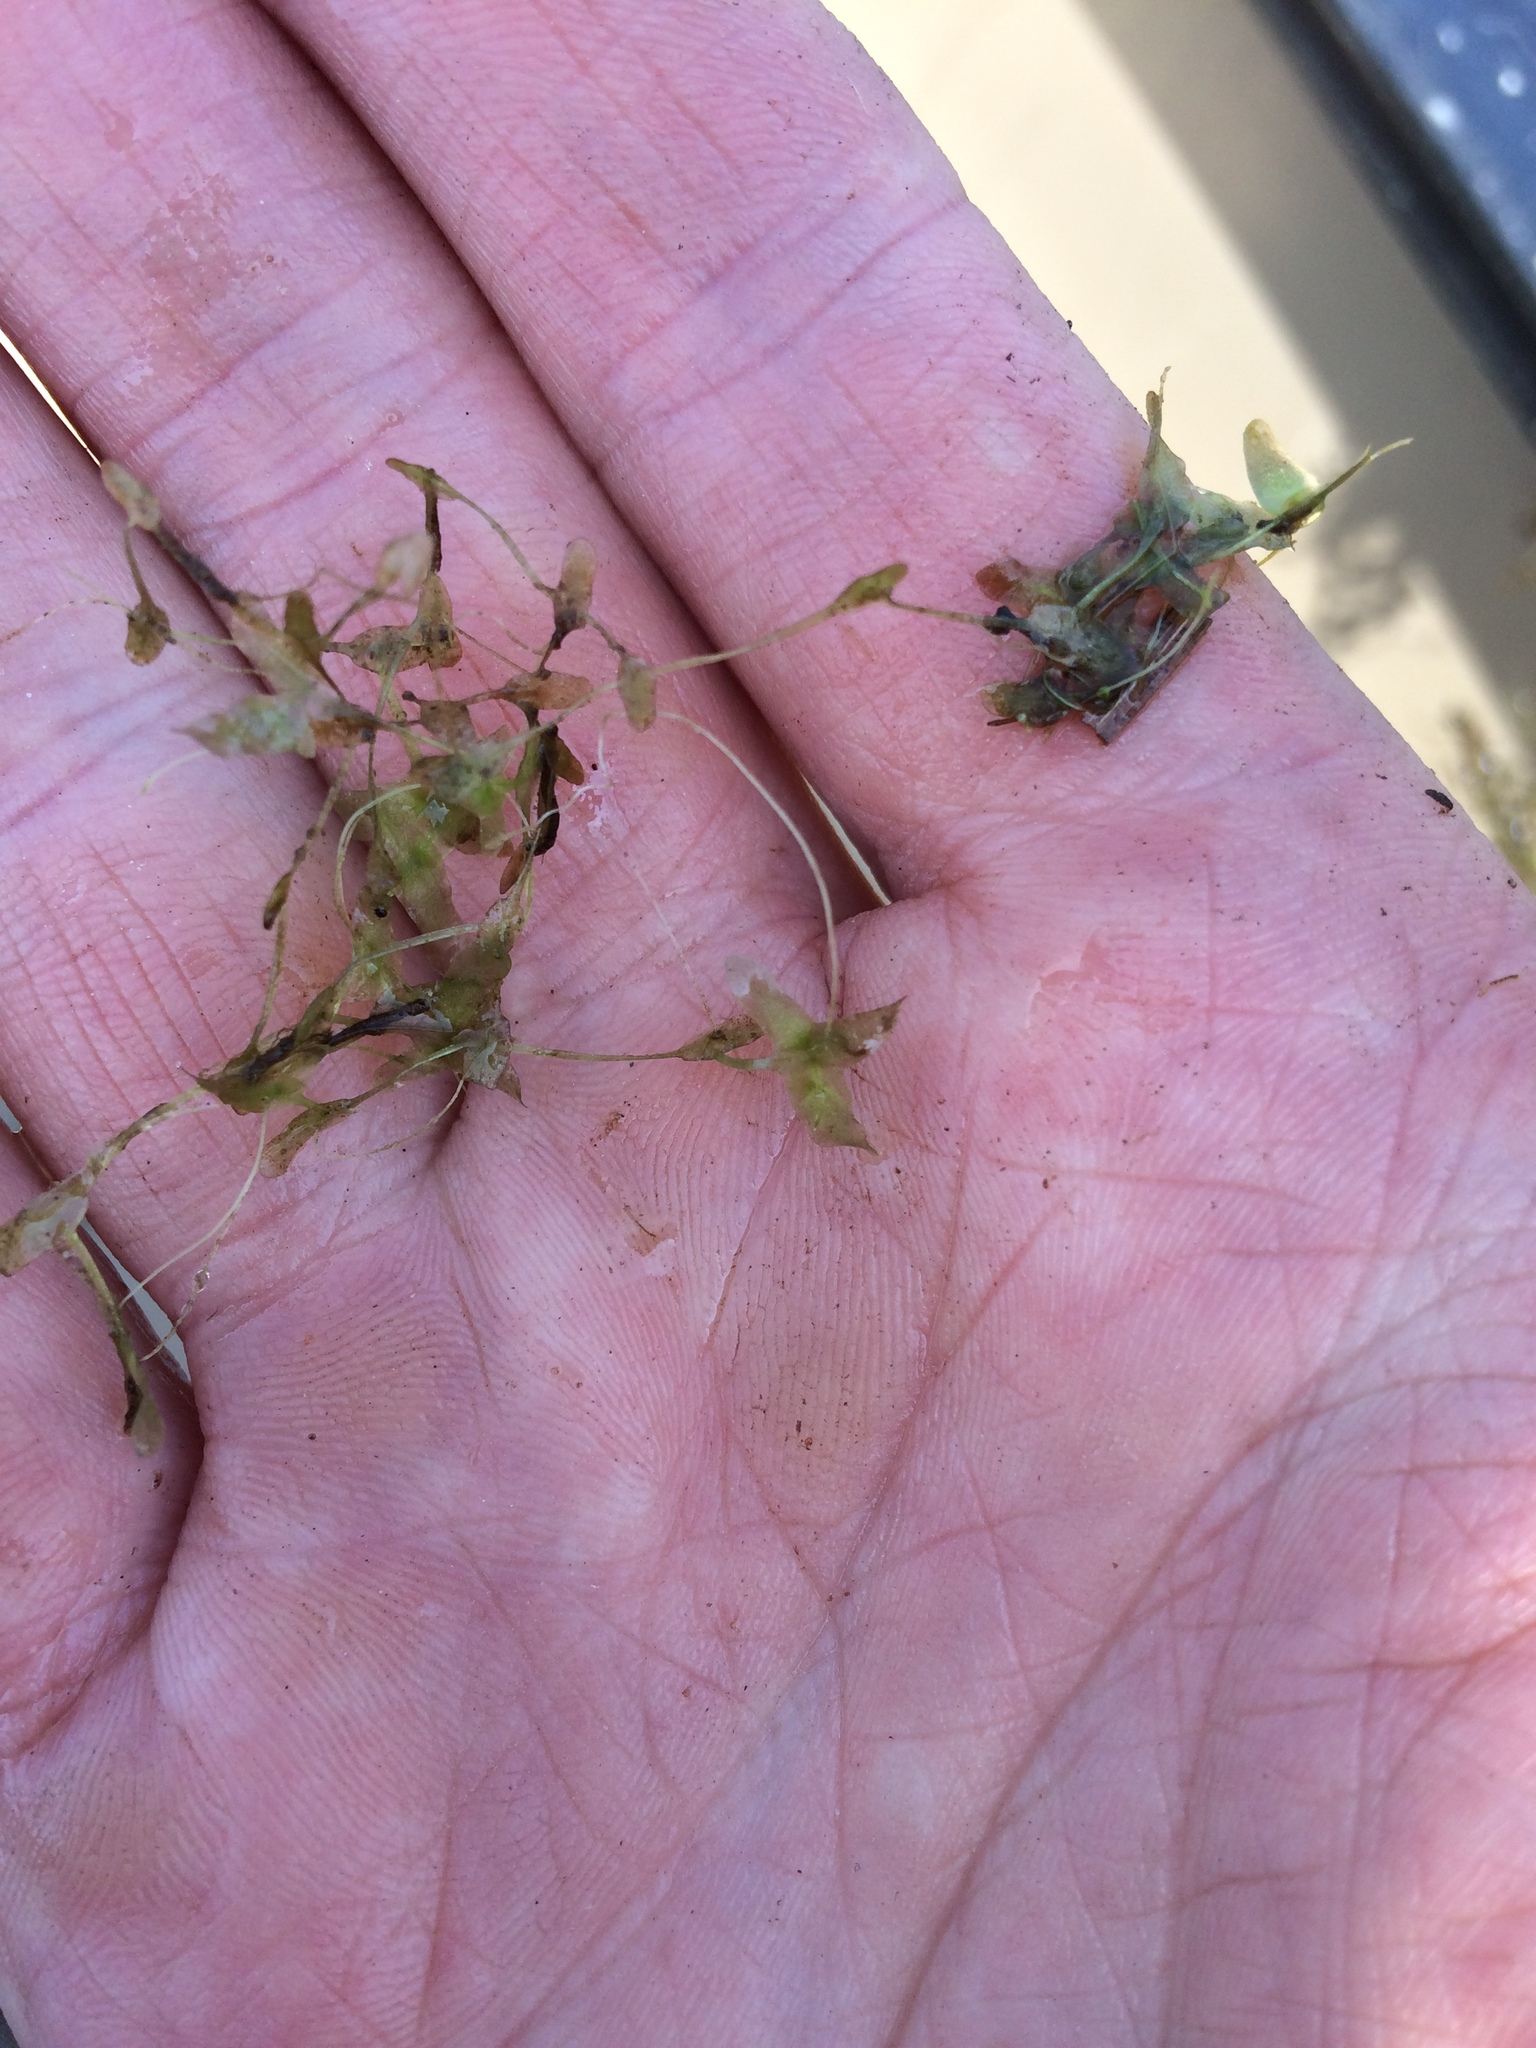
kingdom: Plantae
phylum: Tracheophyta
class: Liliopsida
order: Alismatales
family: Araceae
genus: Lemna
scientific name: Lemna trisulca
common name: Ivy-leaved duckweed
